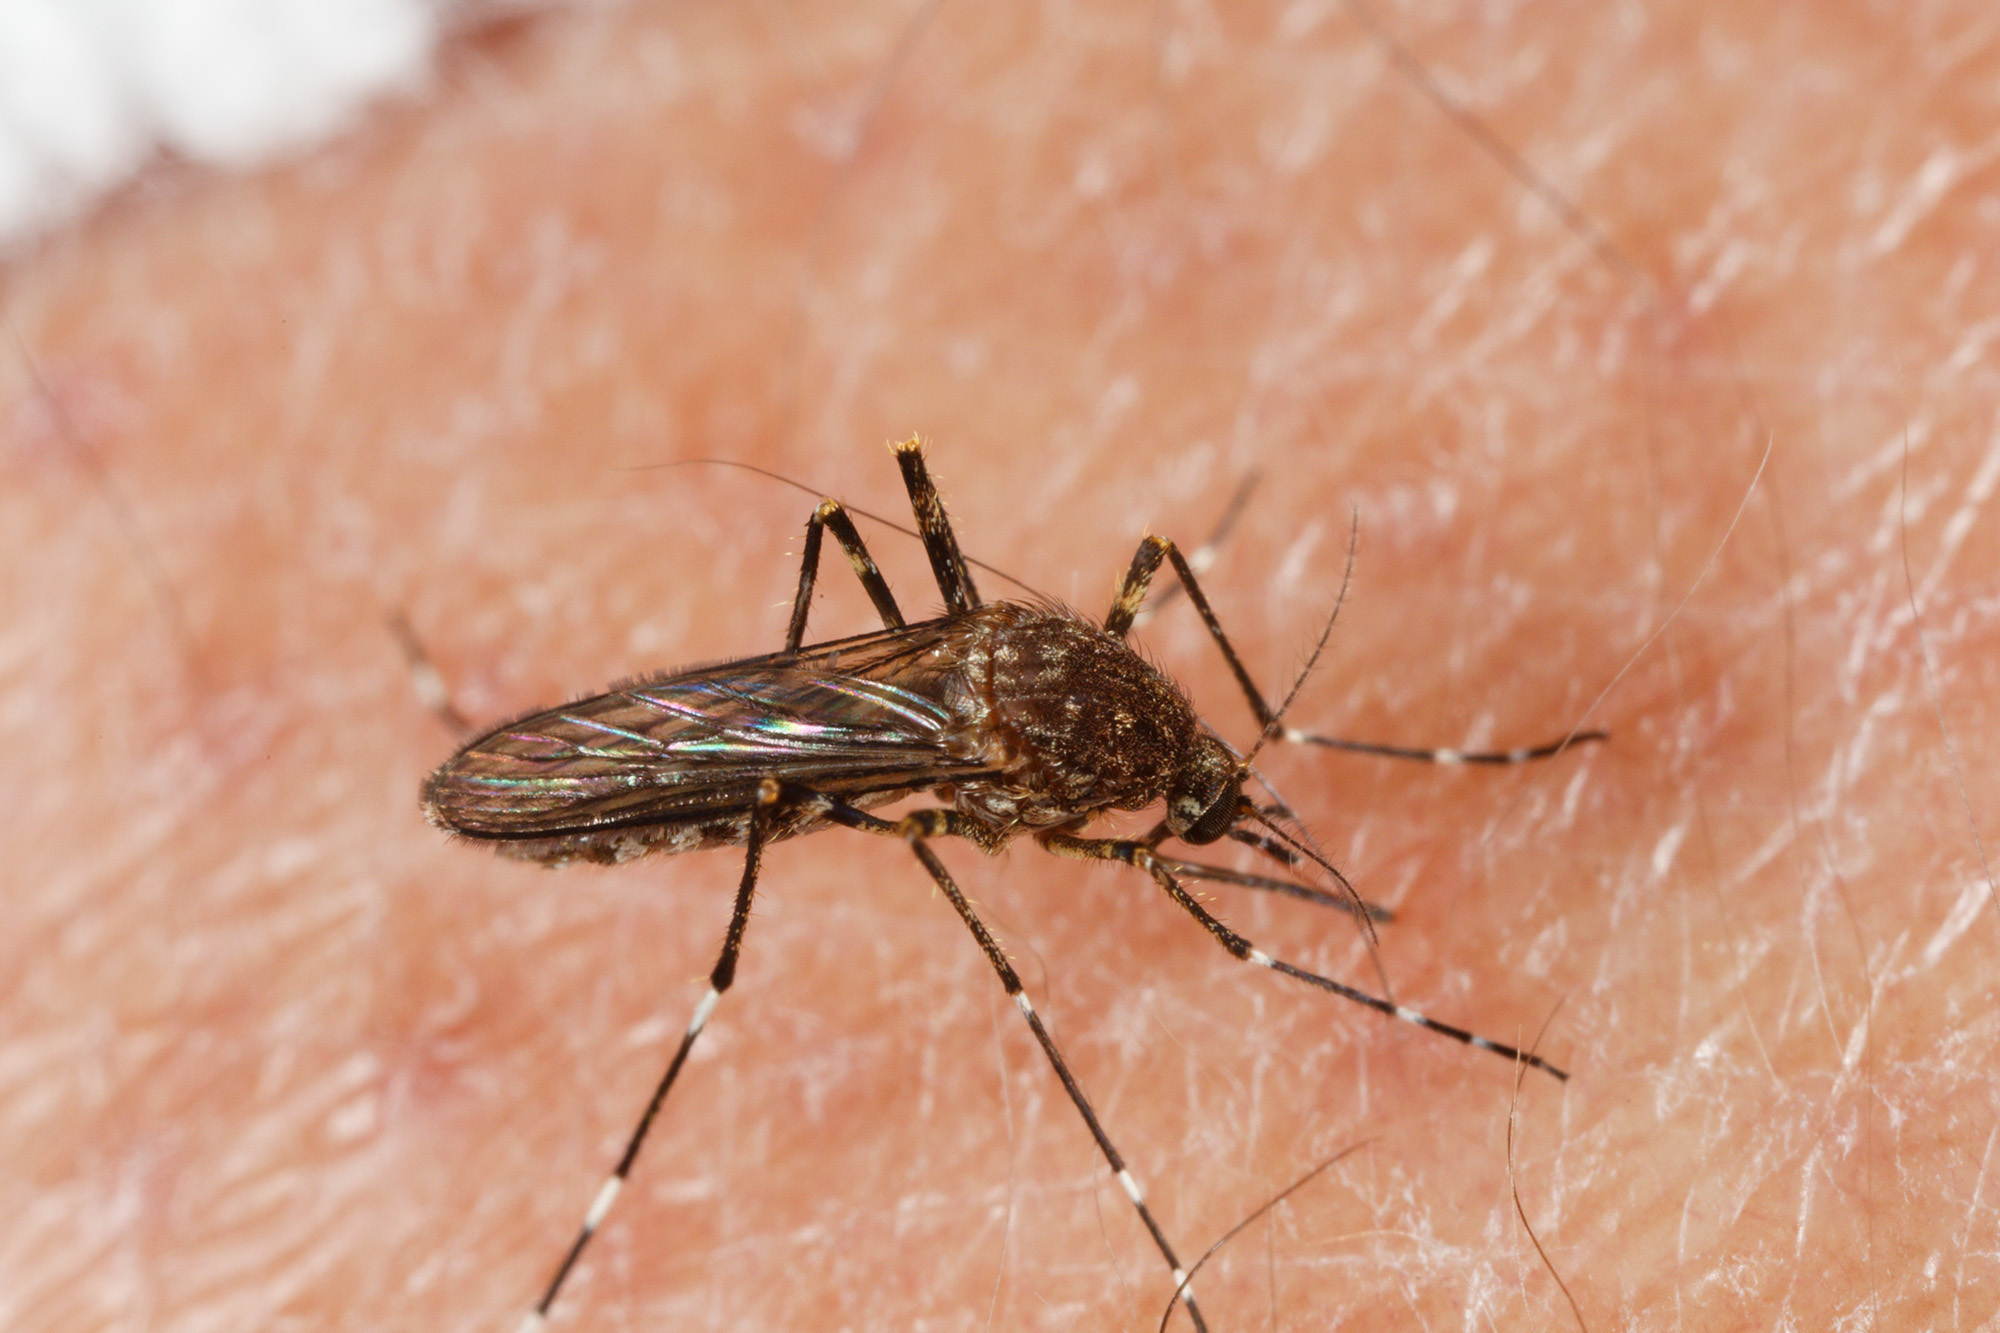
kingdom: Animalia
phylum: Arthropoda
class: Insecta
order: Diptera
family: Culicidae
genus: Aedes
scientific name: Aedes alboannulatus
